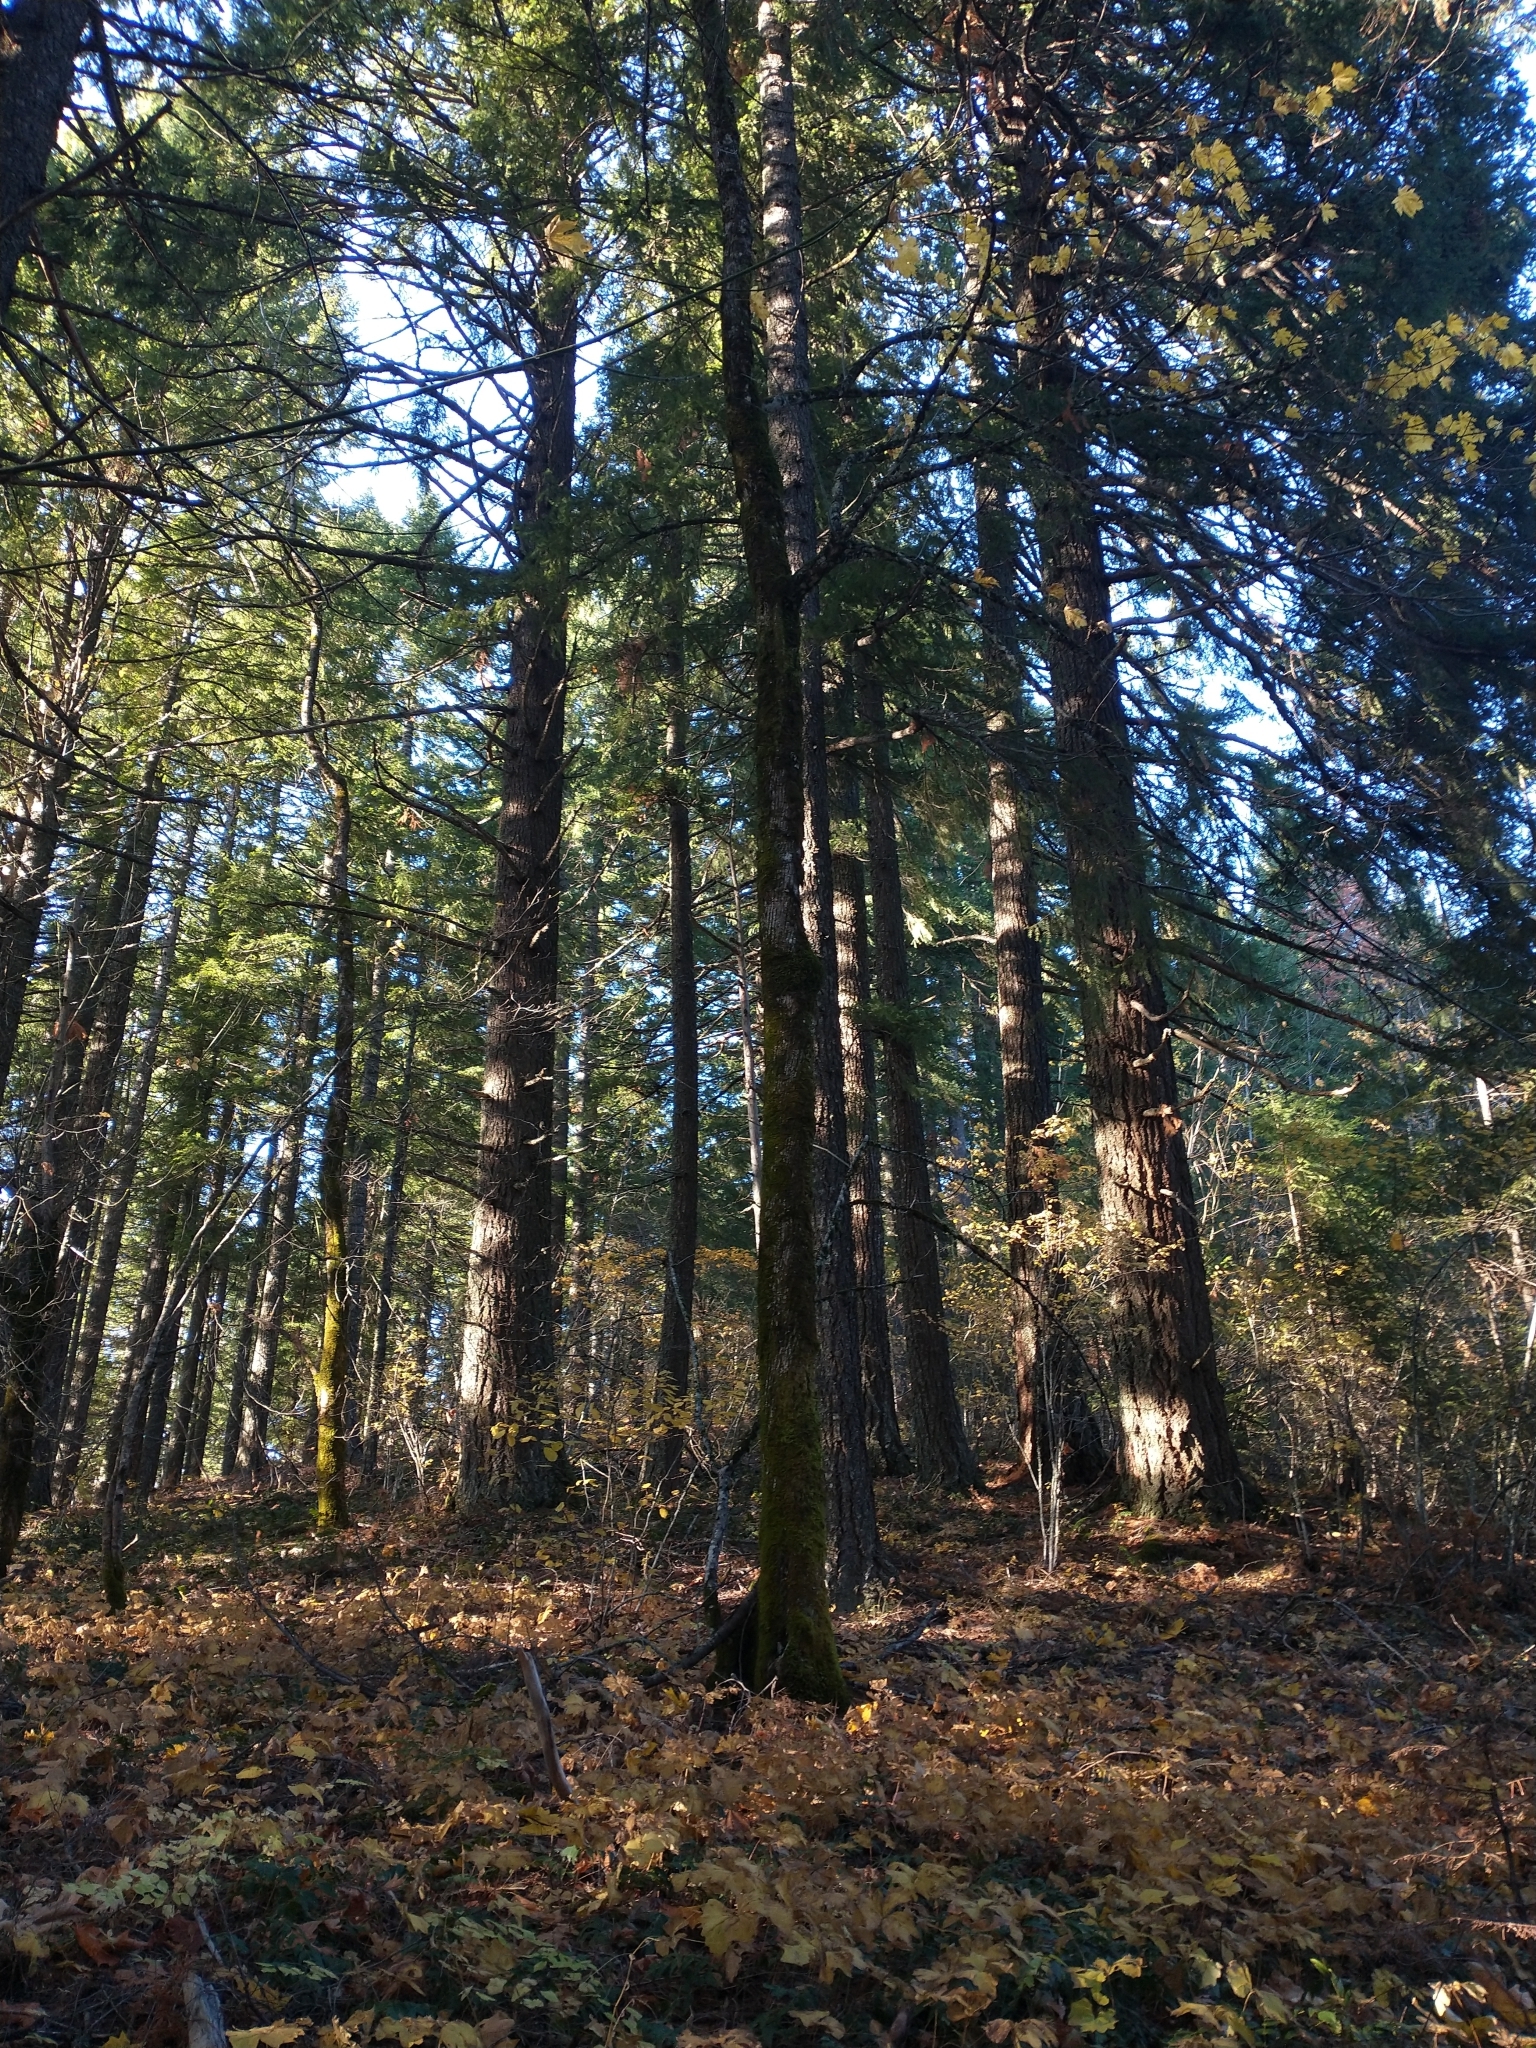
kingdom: Plantae
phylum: Tracheophyta
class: Pinopsida
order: Pinales
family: Pinaceae
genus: Pseudotsuga
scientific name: Pseudotsuga menziesii
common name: Douglas fir
